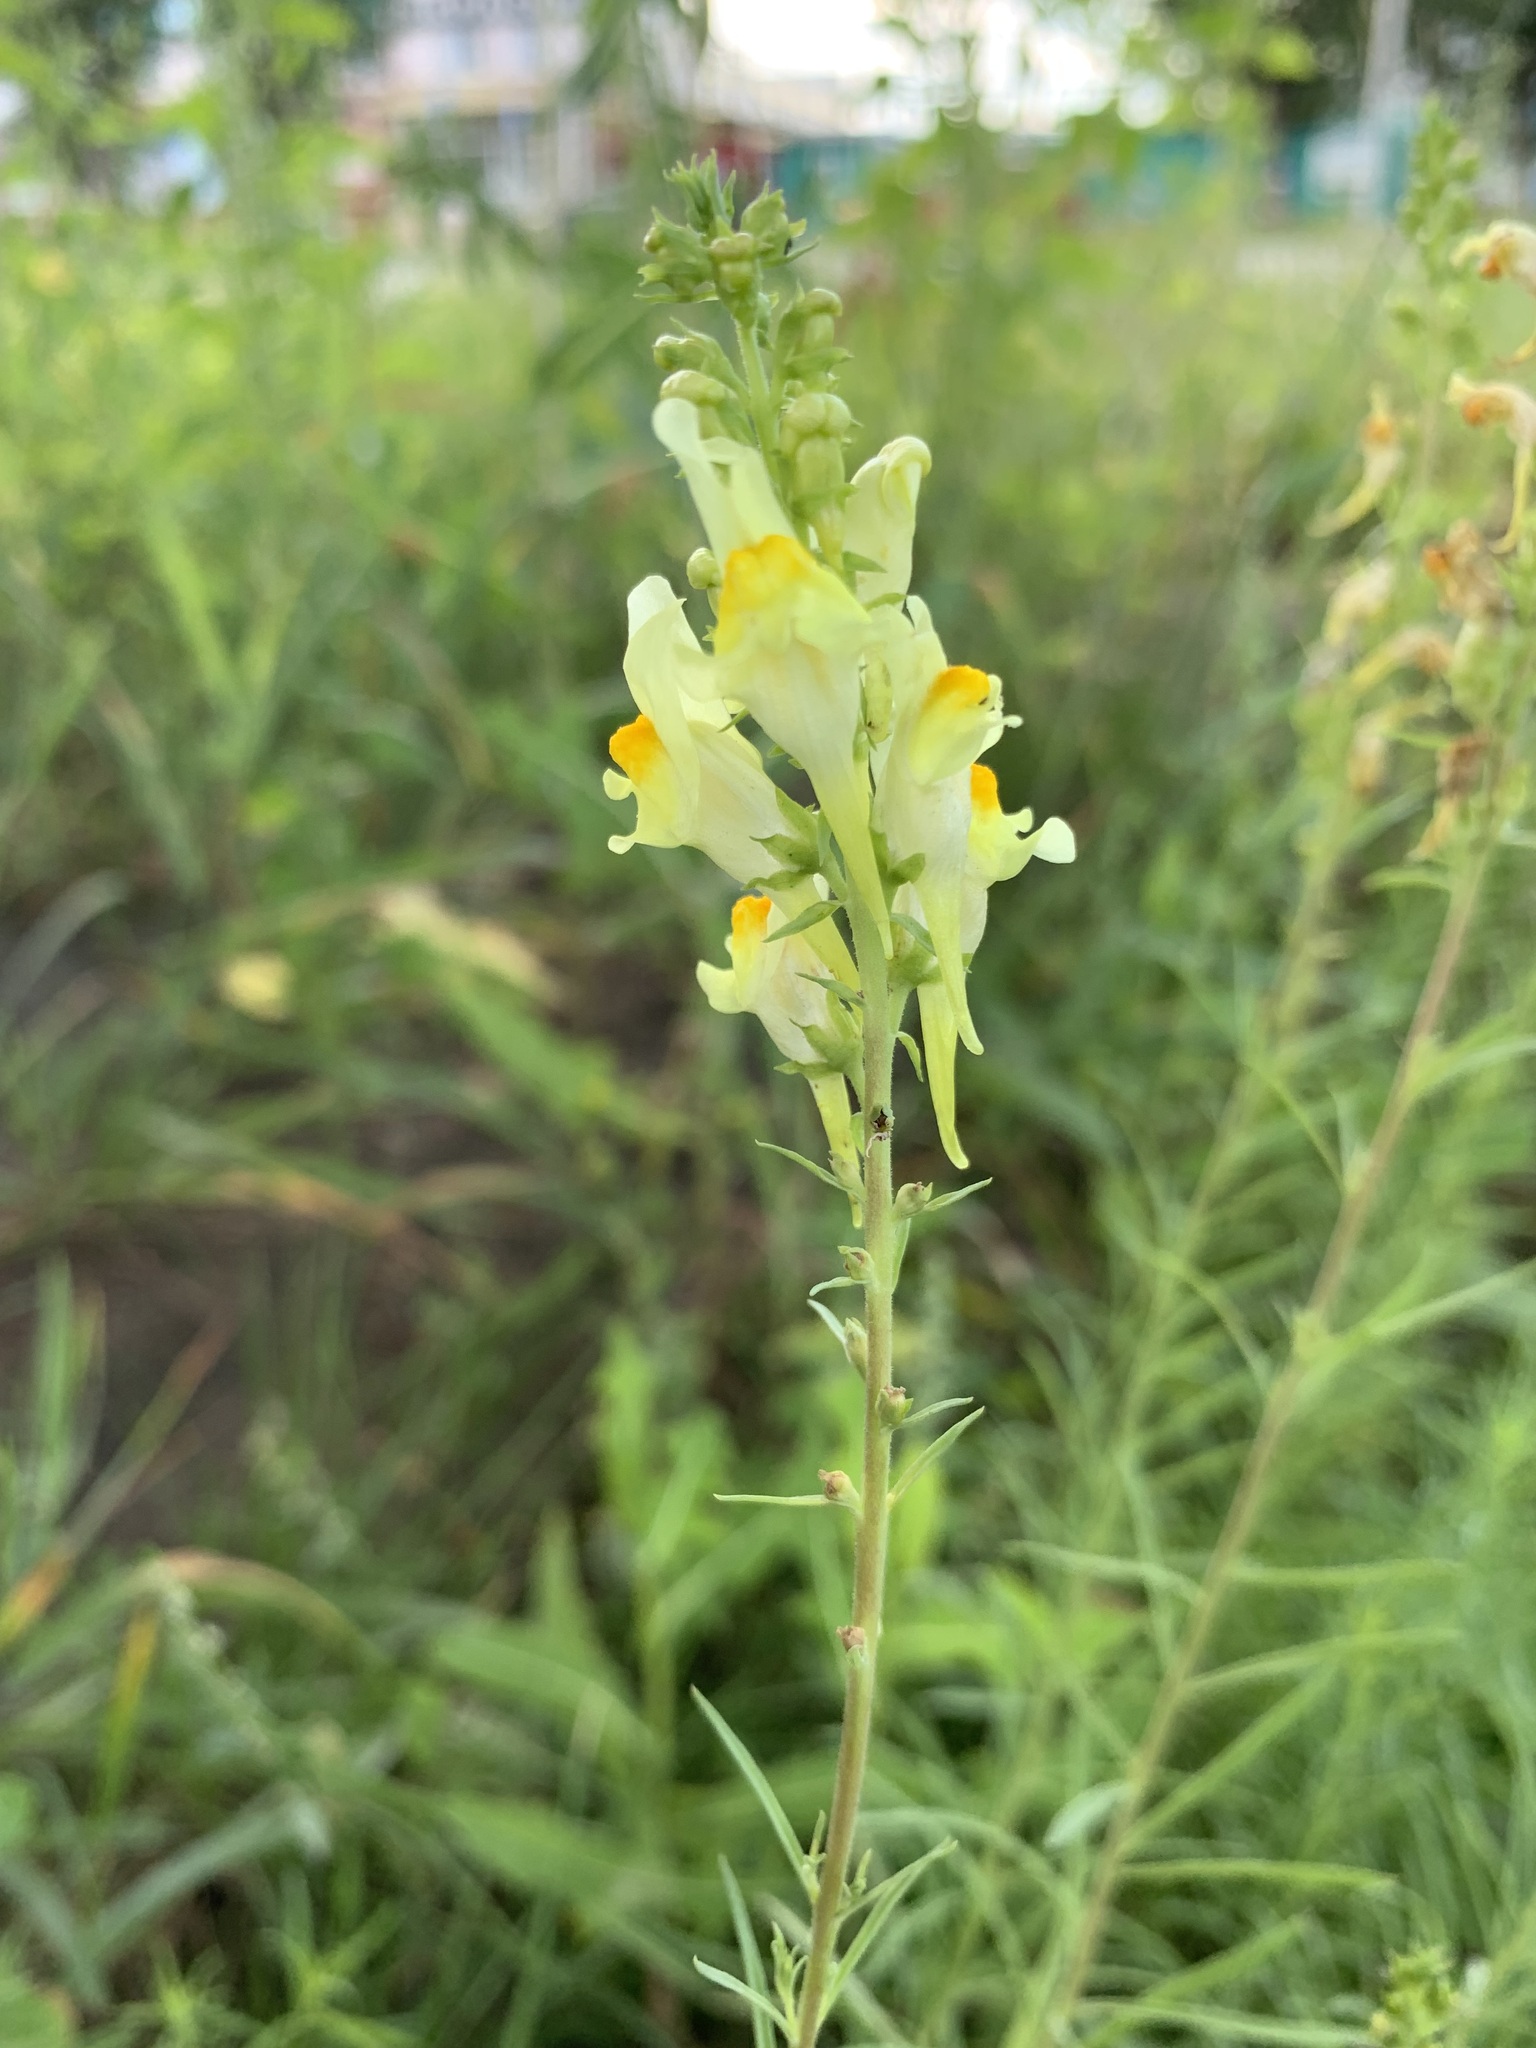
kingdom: Plantae
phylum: Tracheophyta
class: Magnoliopsida
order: Lamiales
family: Plantaginaceae
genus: Linaria
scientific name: Linaria vulgaris
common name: Butter and eggs
